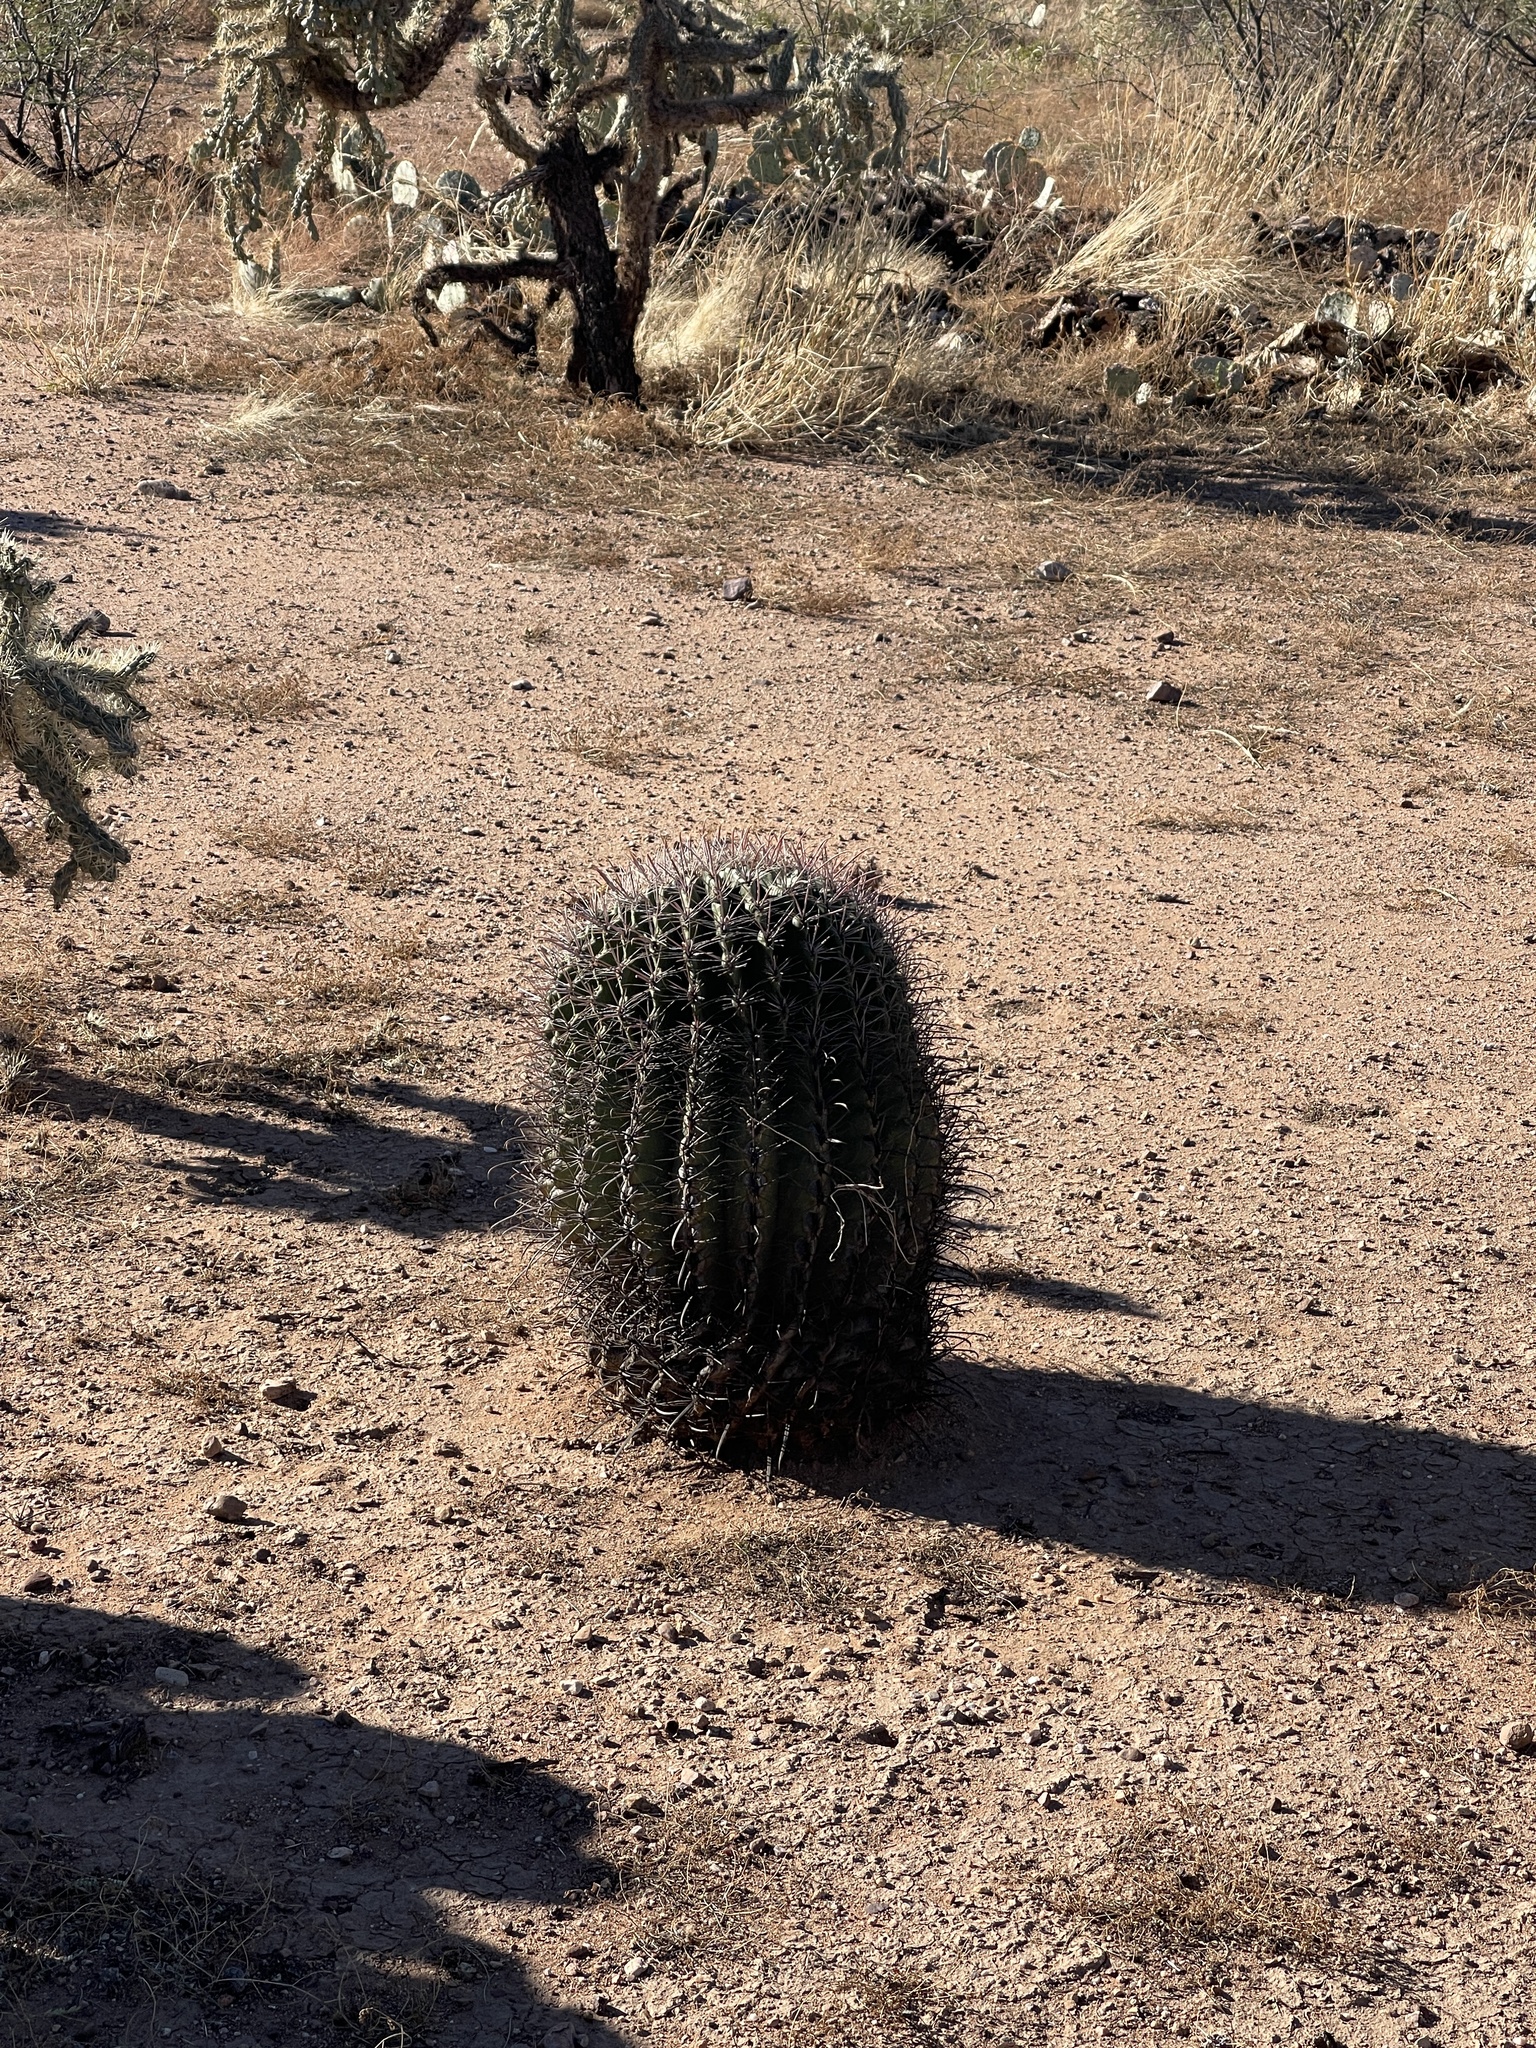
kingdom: Plantae
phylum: Tracheophyta
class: Magnoliopsida
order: Caryophyllales
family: Cactaceae
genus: Ferocactus
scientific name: Ferocactus wislizeni
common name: Candy barrel cactus
